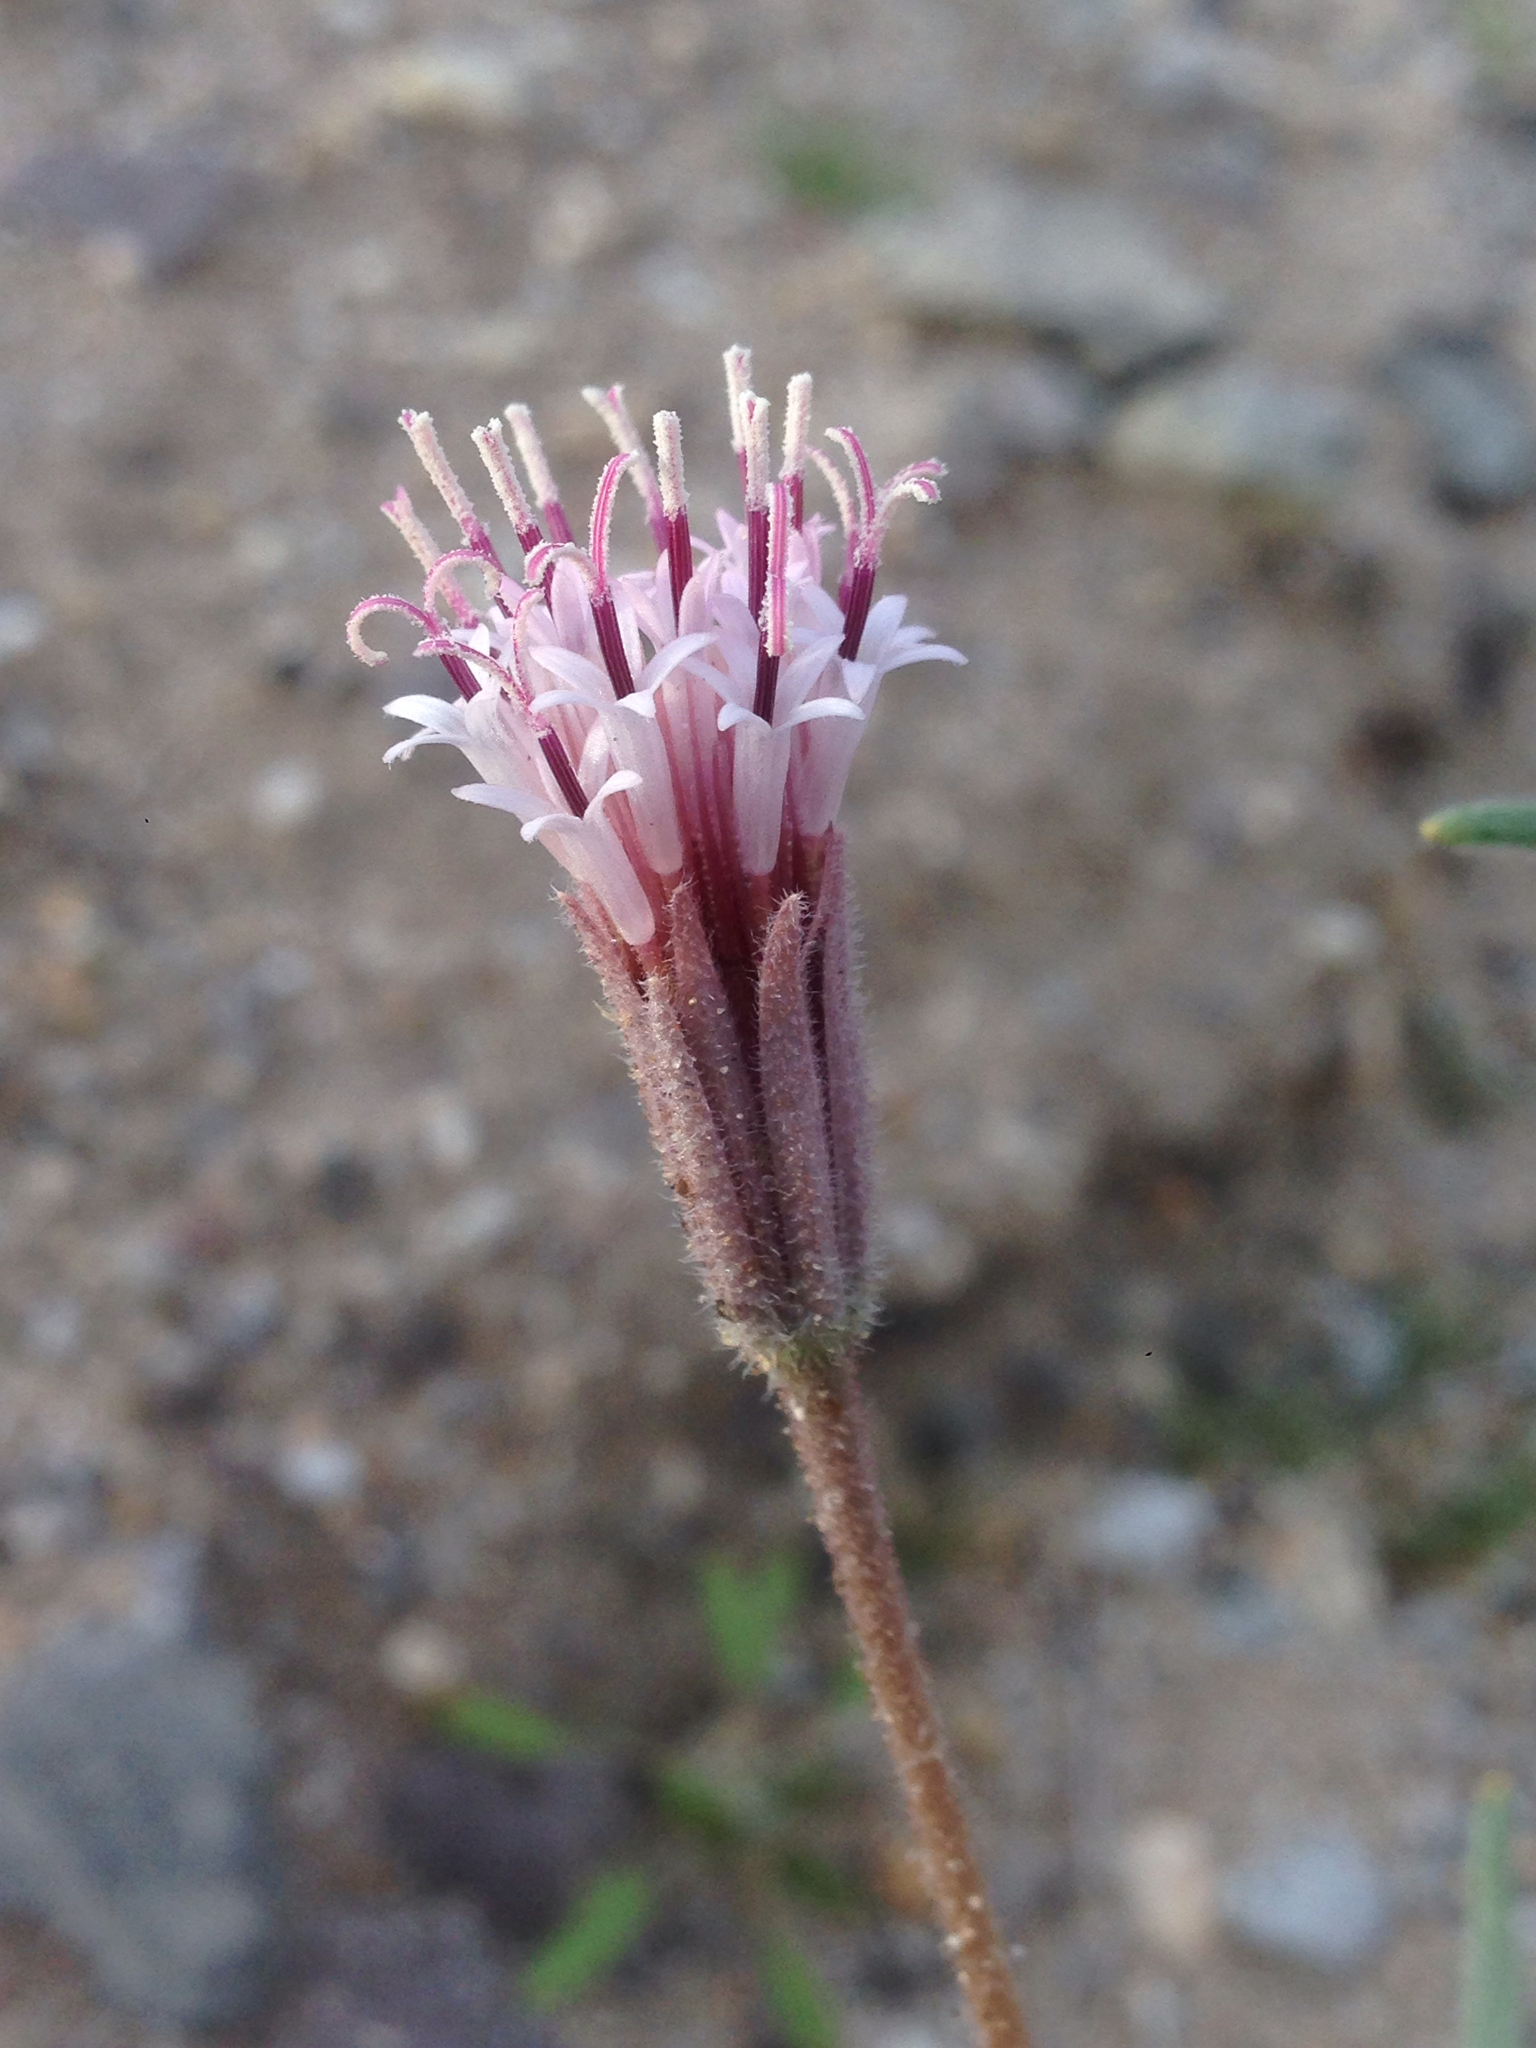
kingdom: Plantae
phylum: Tracheophyta
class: Magnoliopsida
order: Asterales
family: Asteraceae
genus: Palafoxia
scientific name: Palafoxia arida
